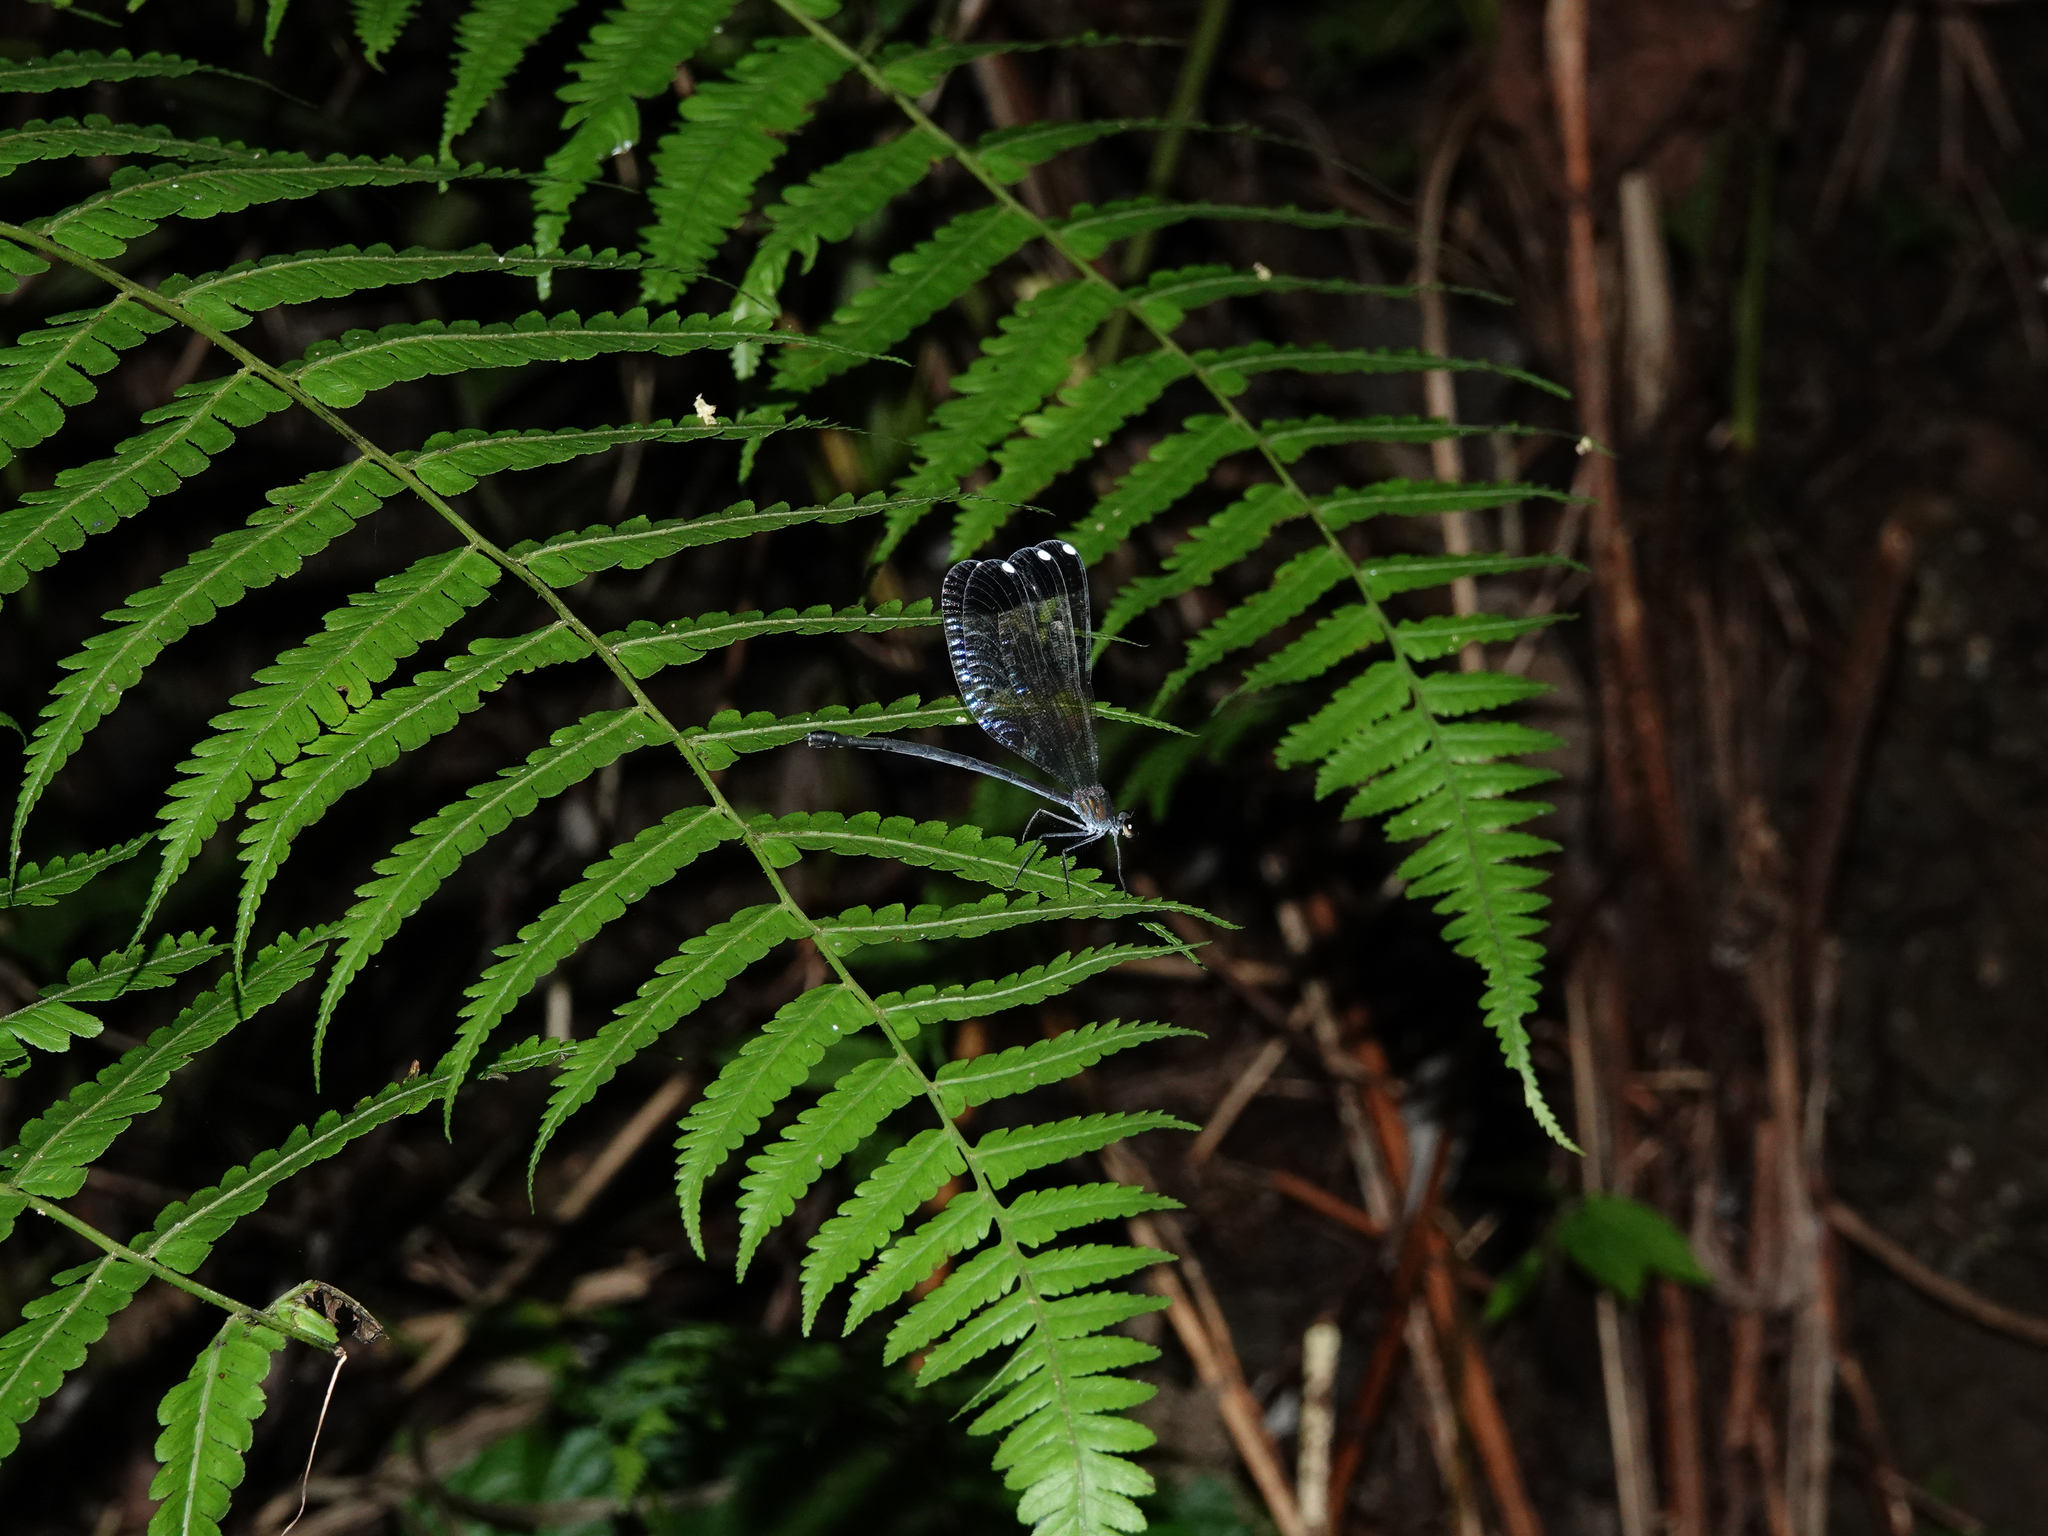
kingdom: Animalia
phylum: Arthropoda
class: Insecta
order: Odonata
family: Calopterygidae
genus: Echo
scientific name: Echo margarita
